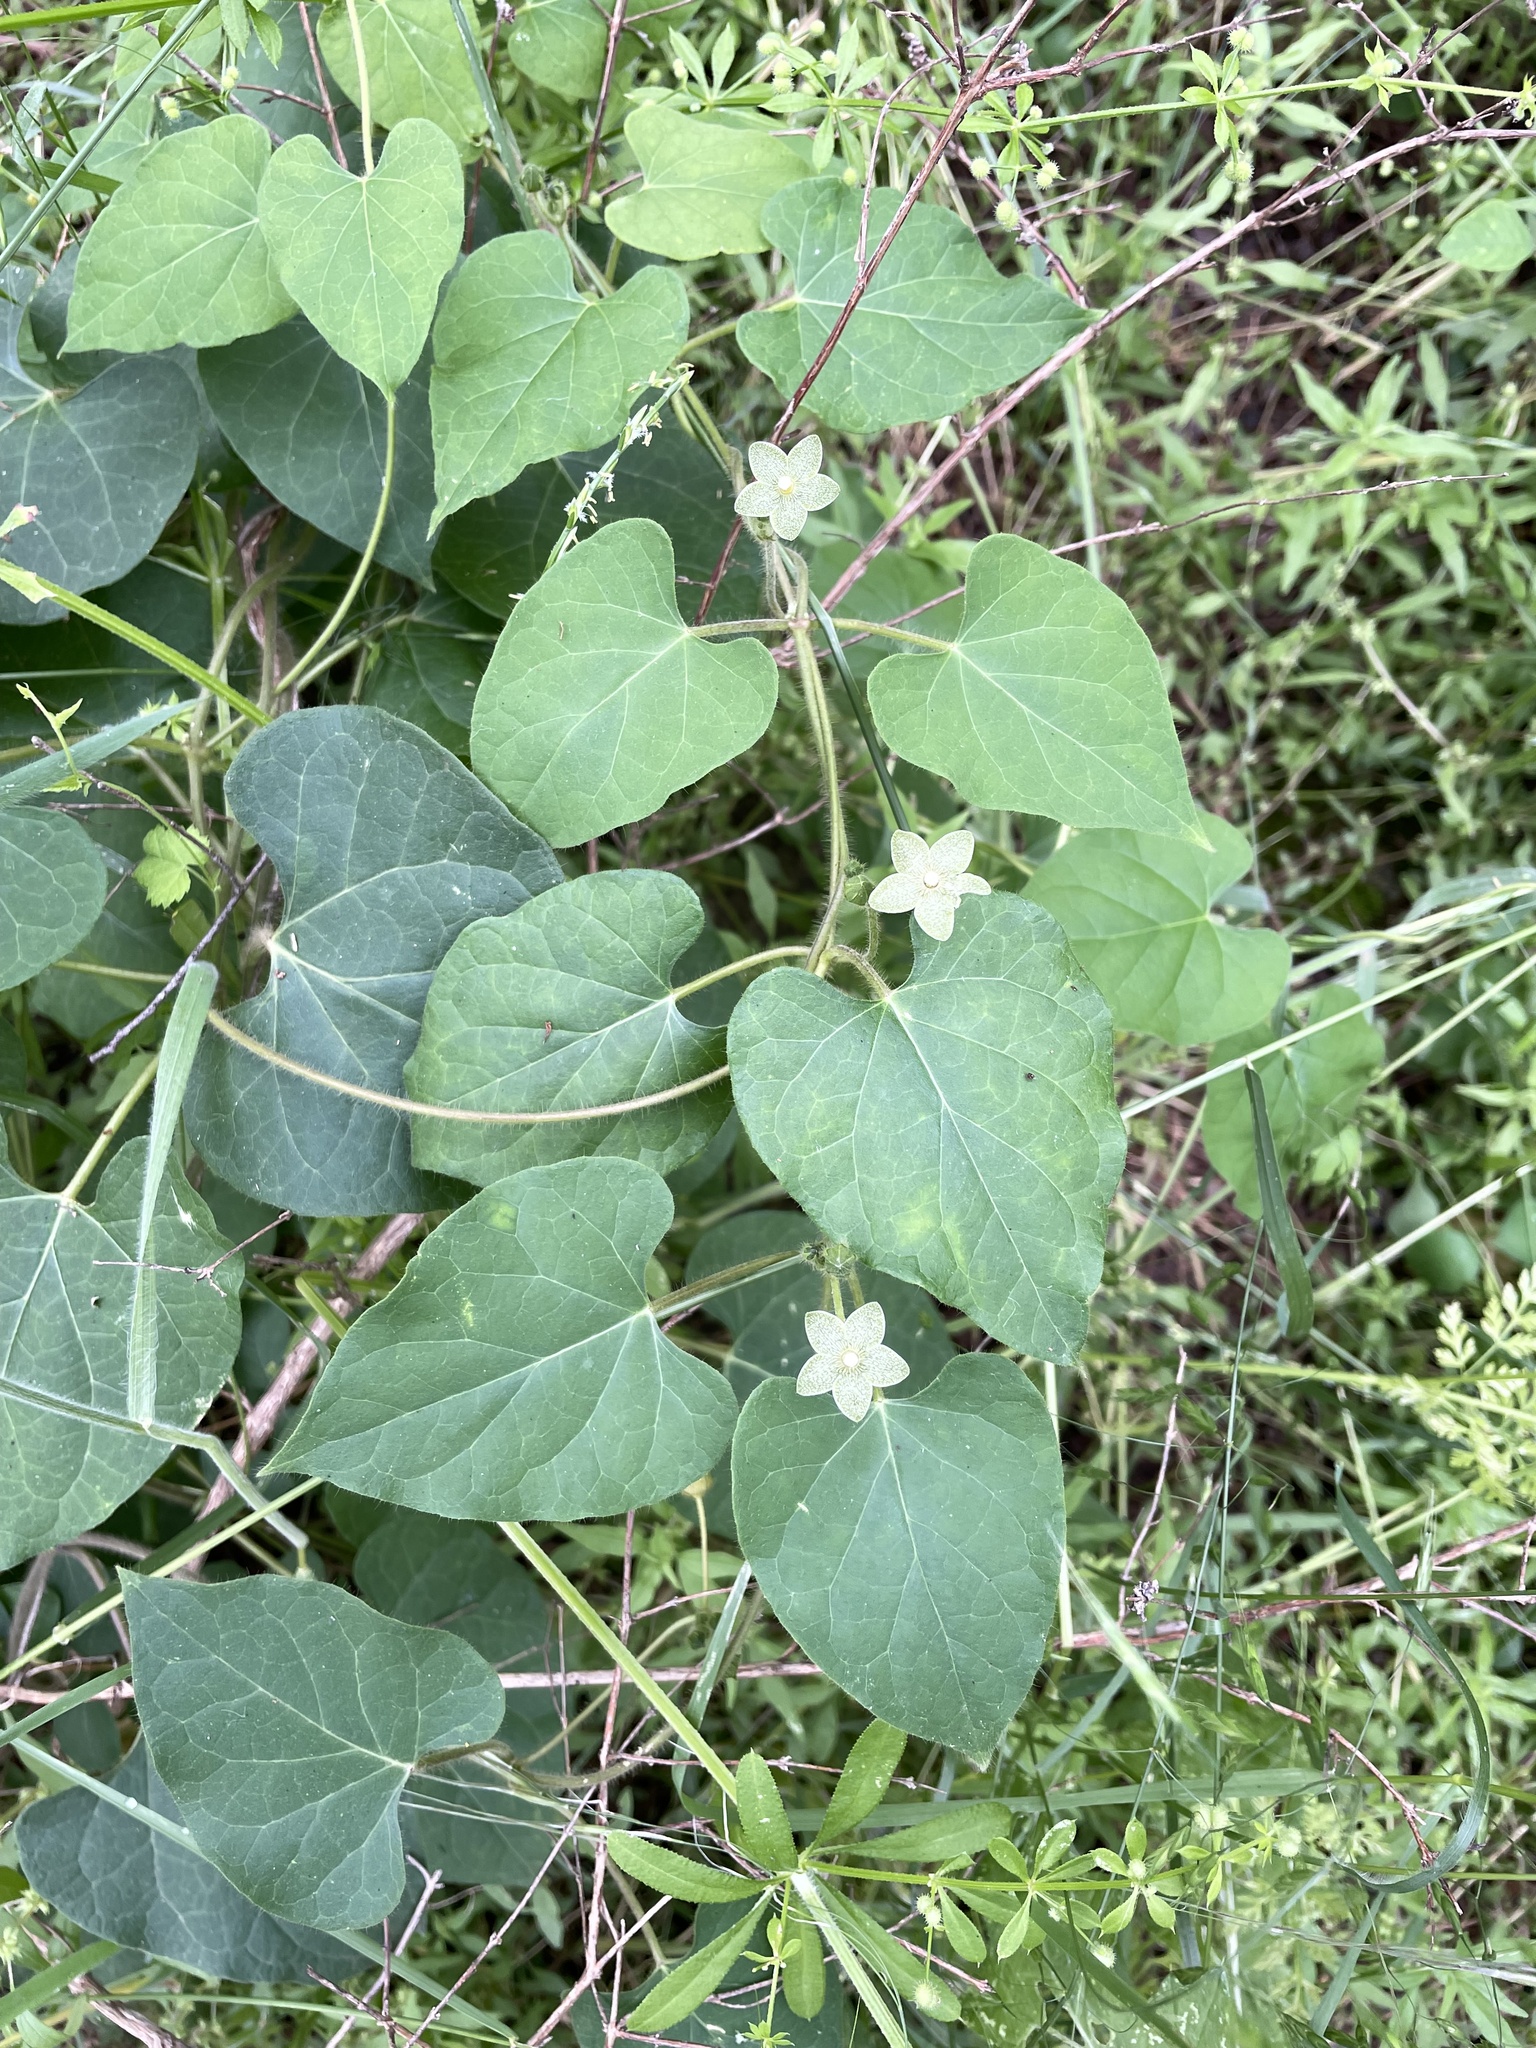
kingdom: Plantae
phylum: Tracheophyta
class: Magnoliopsida
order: Gentianales
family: Apocynaceae
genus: Dictyanthus
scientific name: Dictyanthus reticulatus
